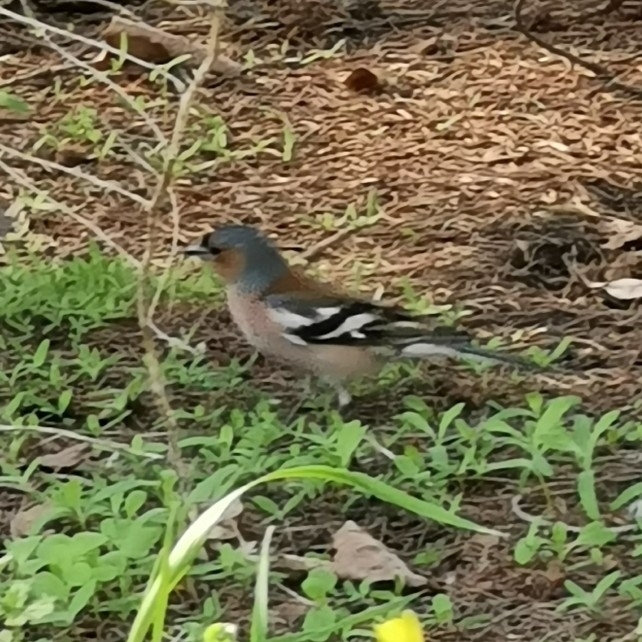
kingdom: Animalia
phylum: Chordata
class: Aves
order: Passeriformes
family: Fringillidae
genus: Fringilla
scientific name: Fringilla coelebs
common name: Common chaffinch
